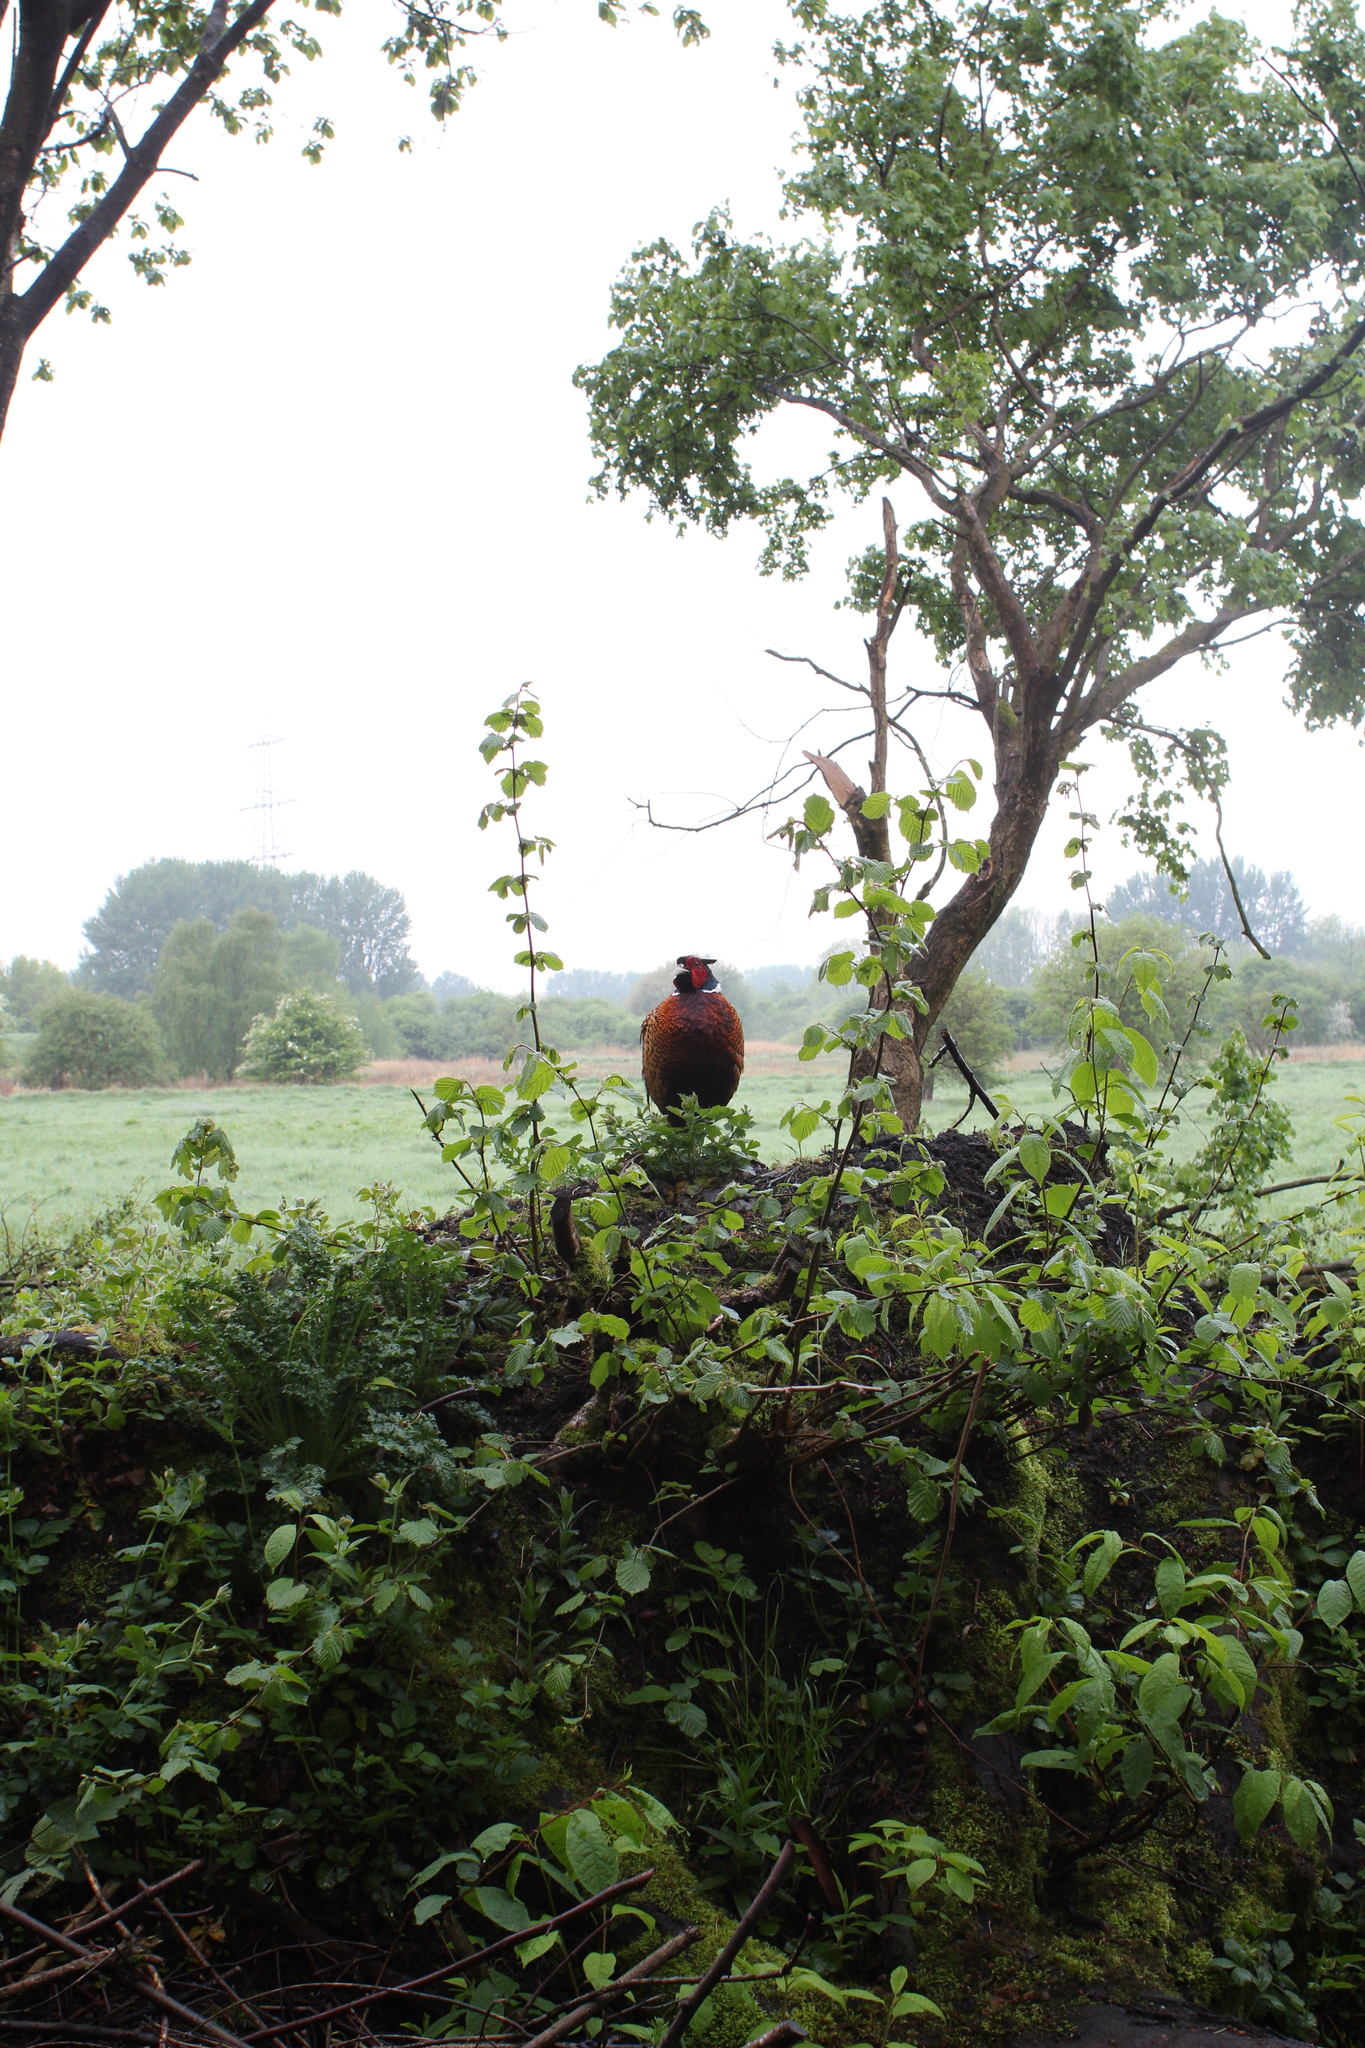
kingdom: Animalia
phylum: Chordata
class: Aves
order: Galliformes
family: Phasianidae
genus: Phasianus
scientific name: Phasianus colchicus
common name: Common pheasant
